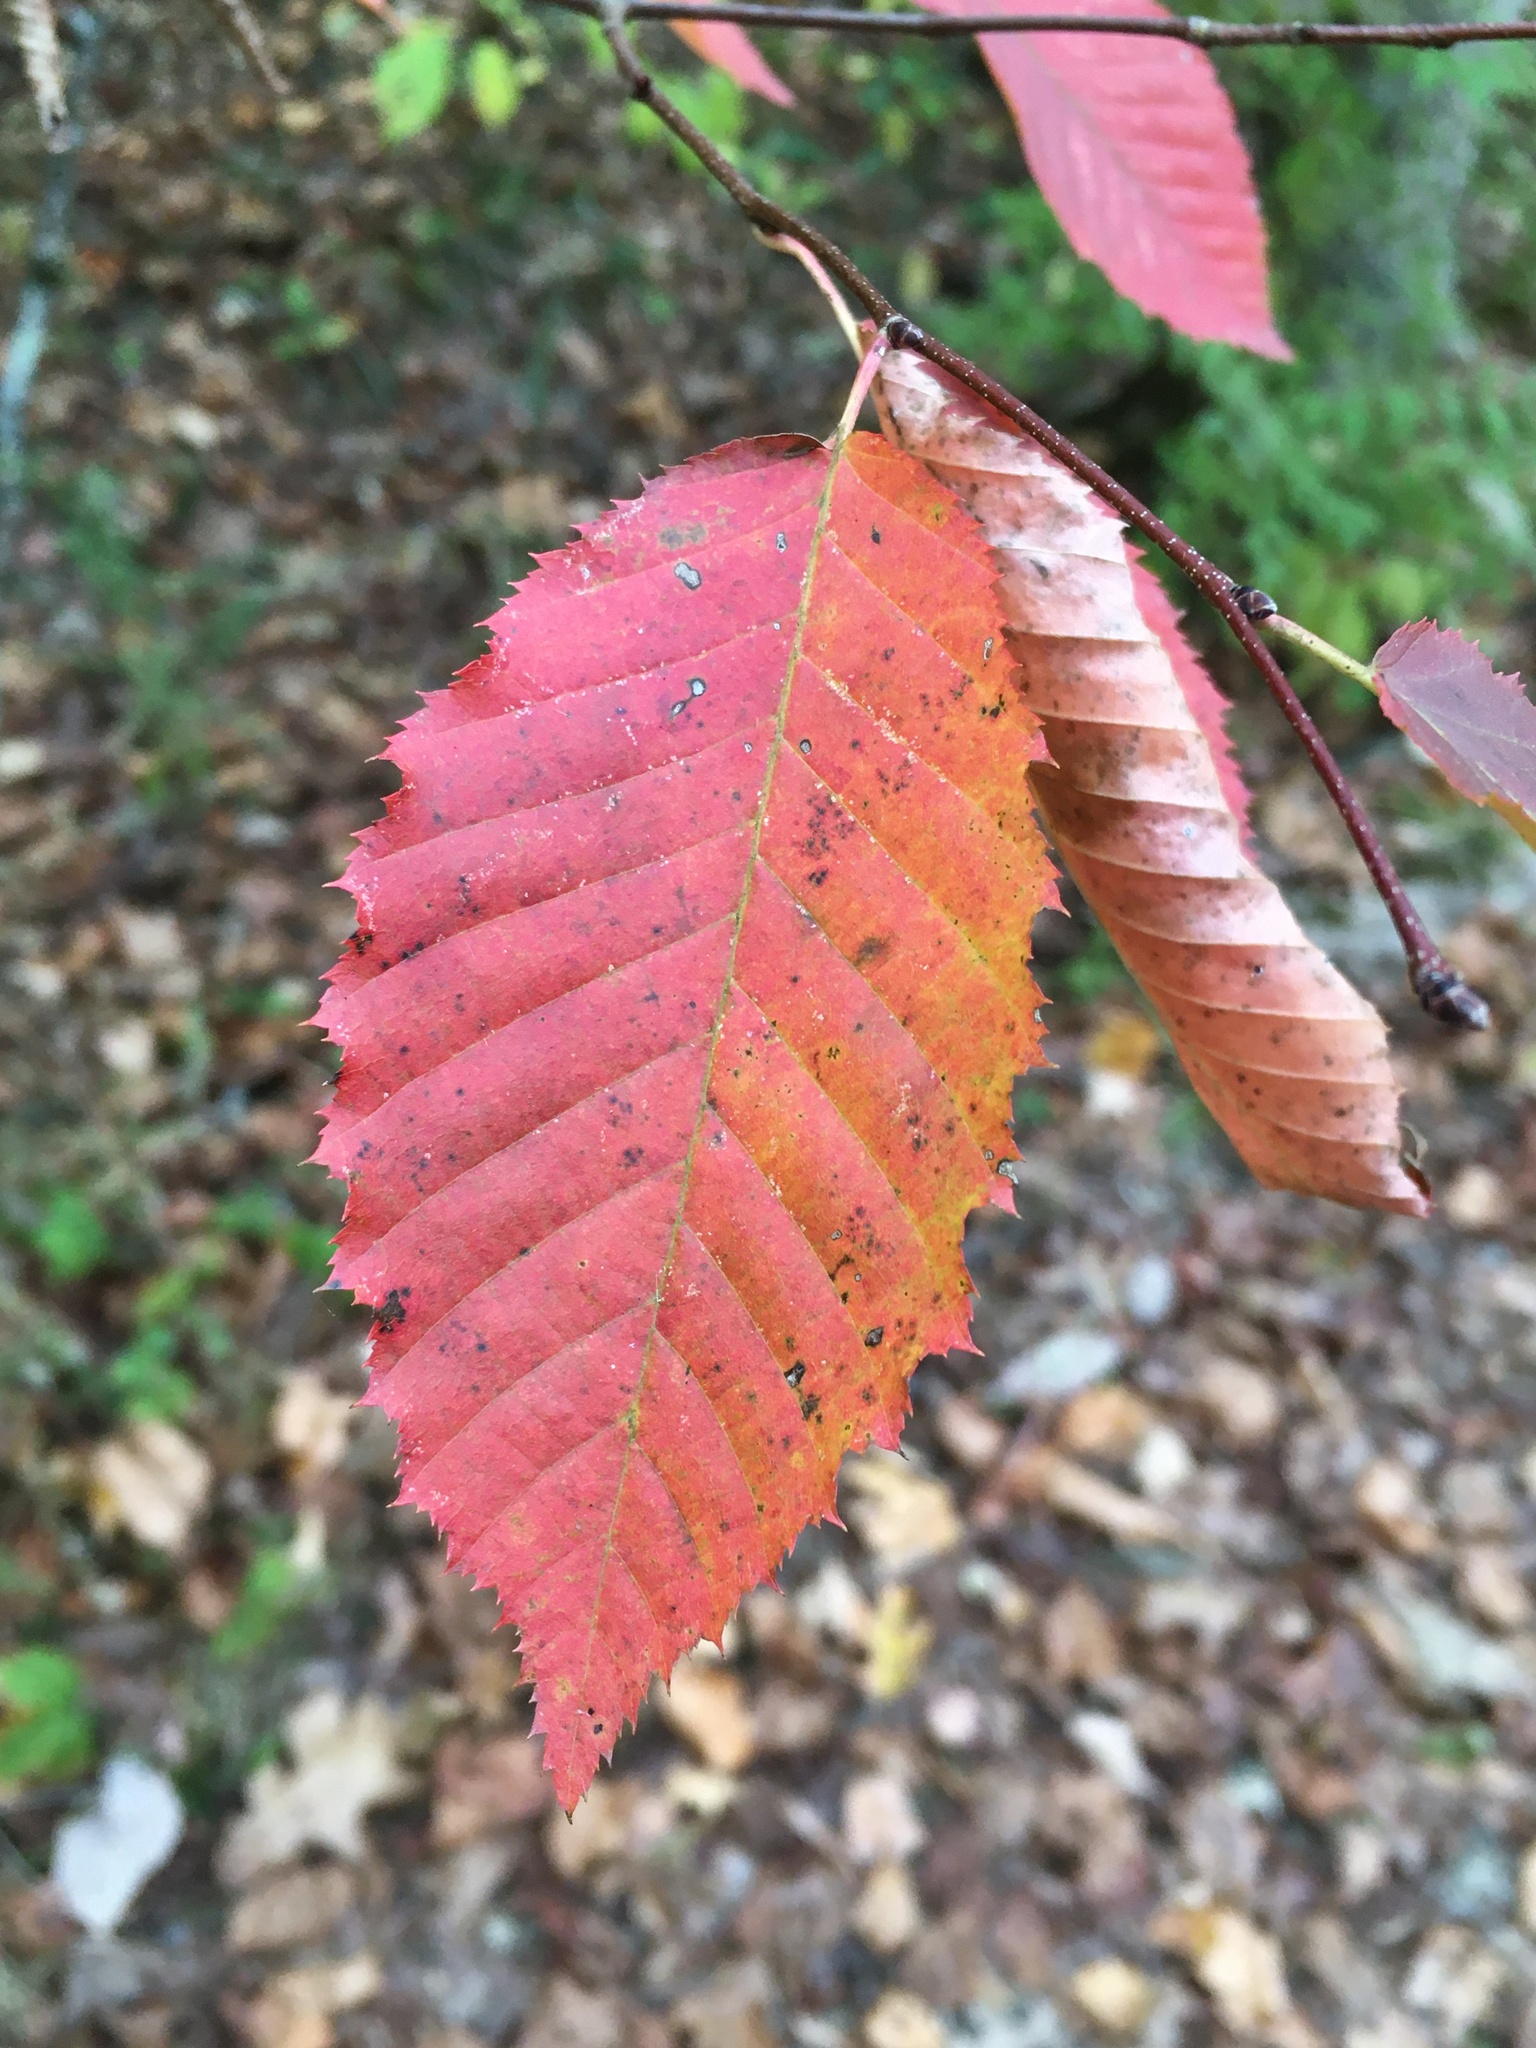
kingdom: Plantae
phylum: Tracheophyta
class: Magnoliopsida
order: Fagales
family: Betulaceae
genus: Carpinus
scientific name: Carpinus caroliniana
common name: American hornbeam
